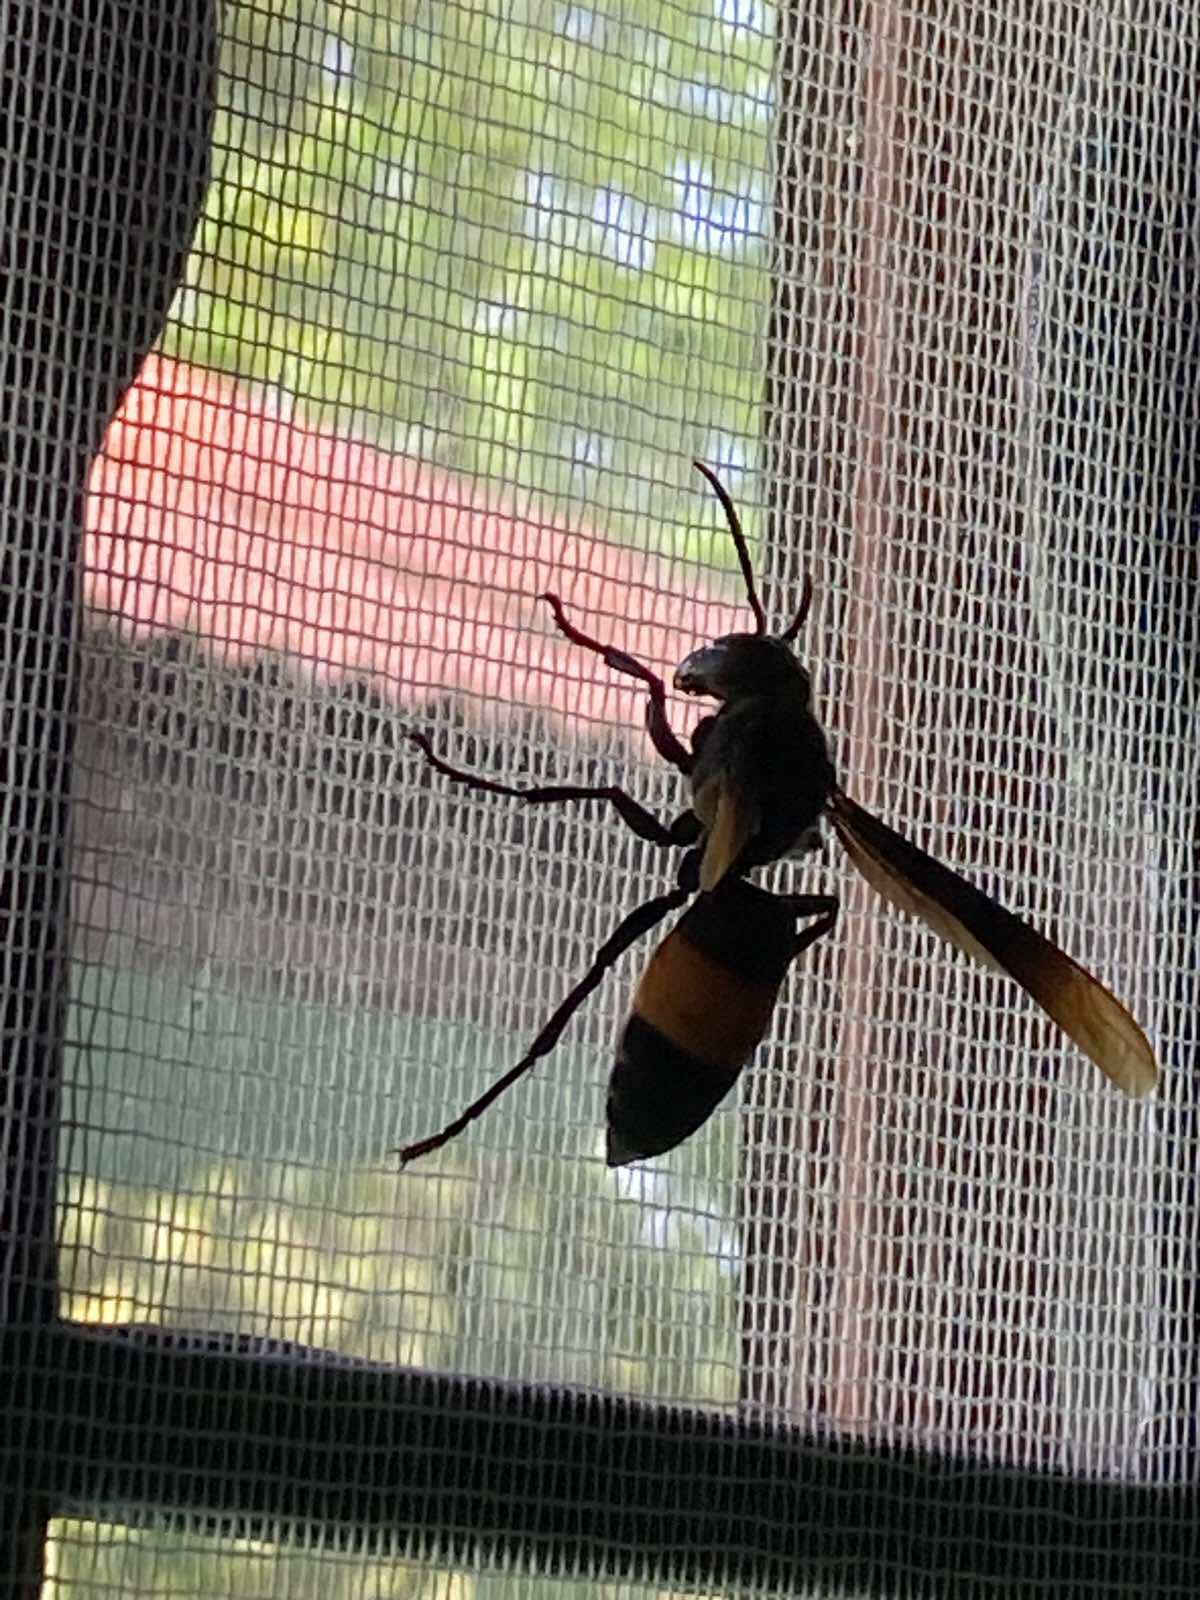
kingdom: Animalia
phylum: Arthropoda
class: Insecta
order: Hymenoptera
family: Vespidae
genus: Vespa
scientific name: Vespa tropica
